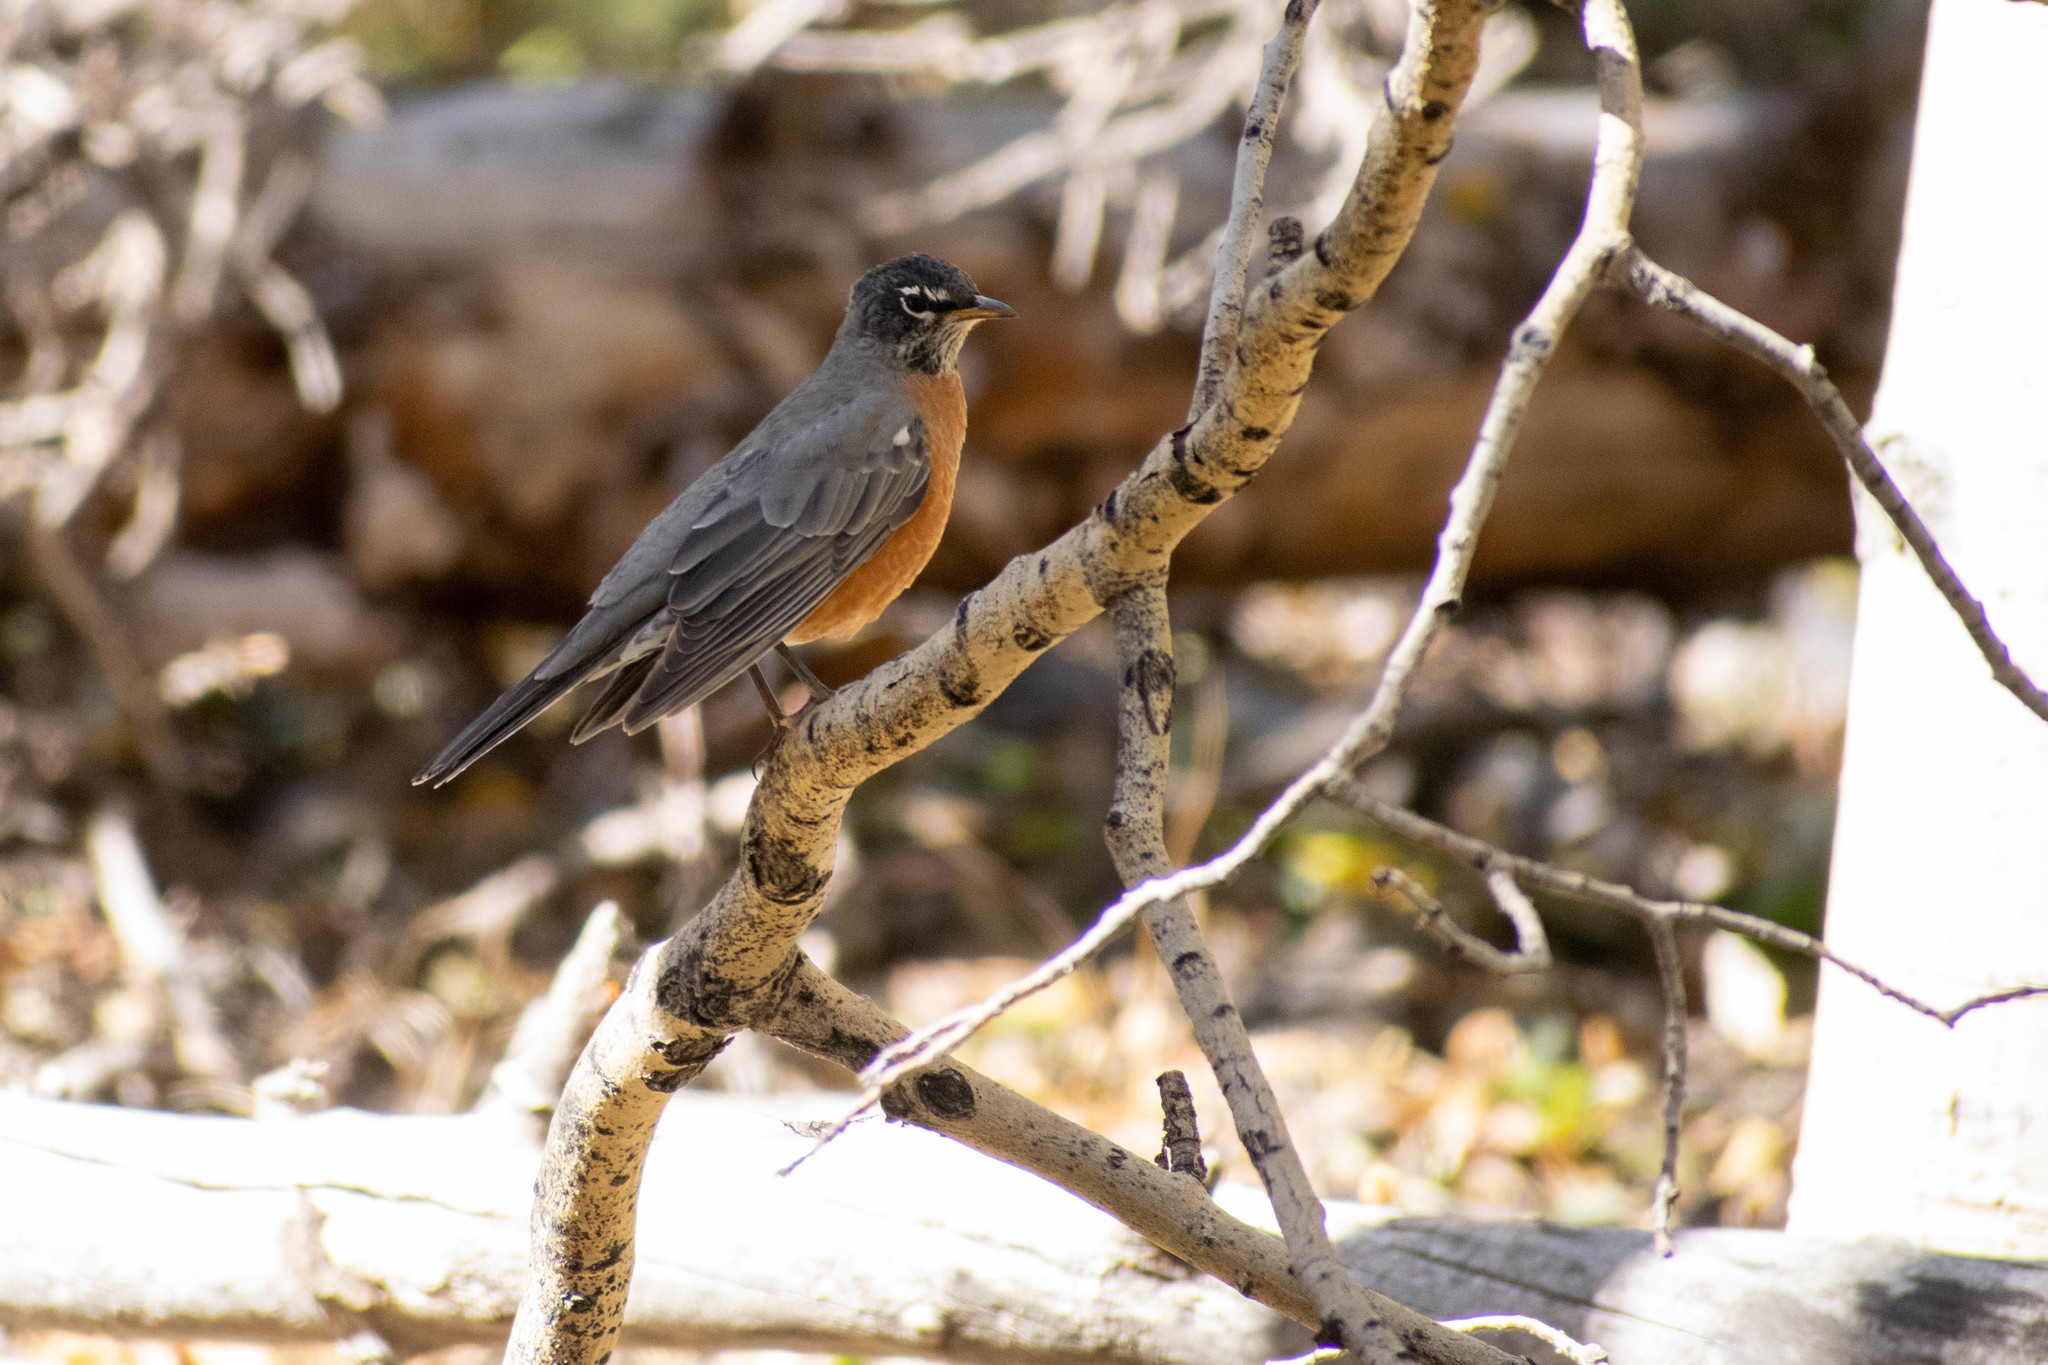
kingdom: Animalia
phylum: Chordata
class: Aves
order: Passeriformes
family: Turdidae
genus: Turdus
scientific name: Turdus migratorius
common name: American robin
